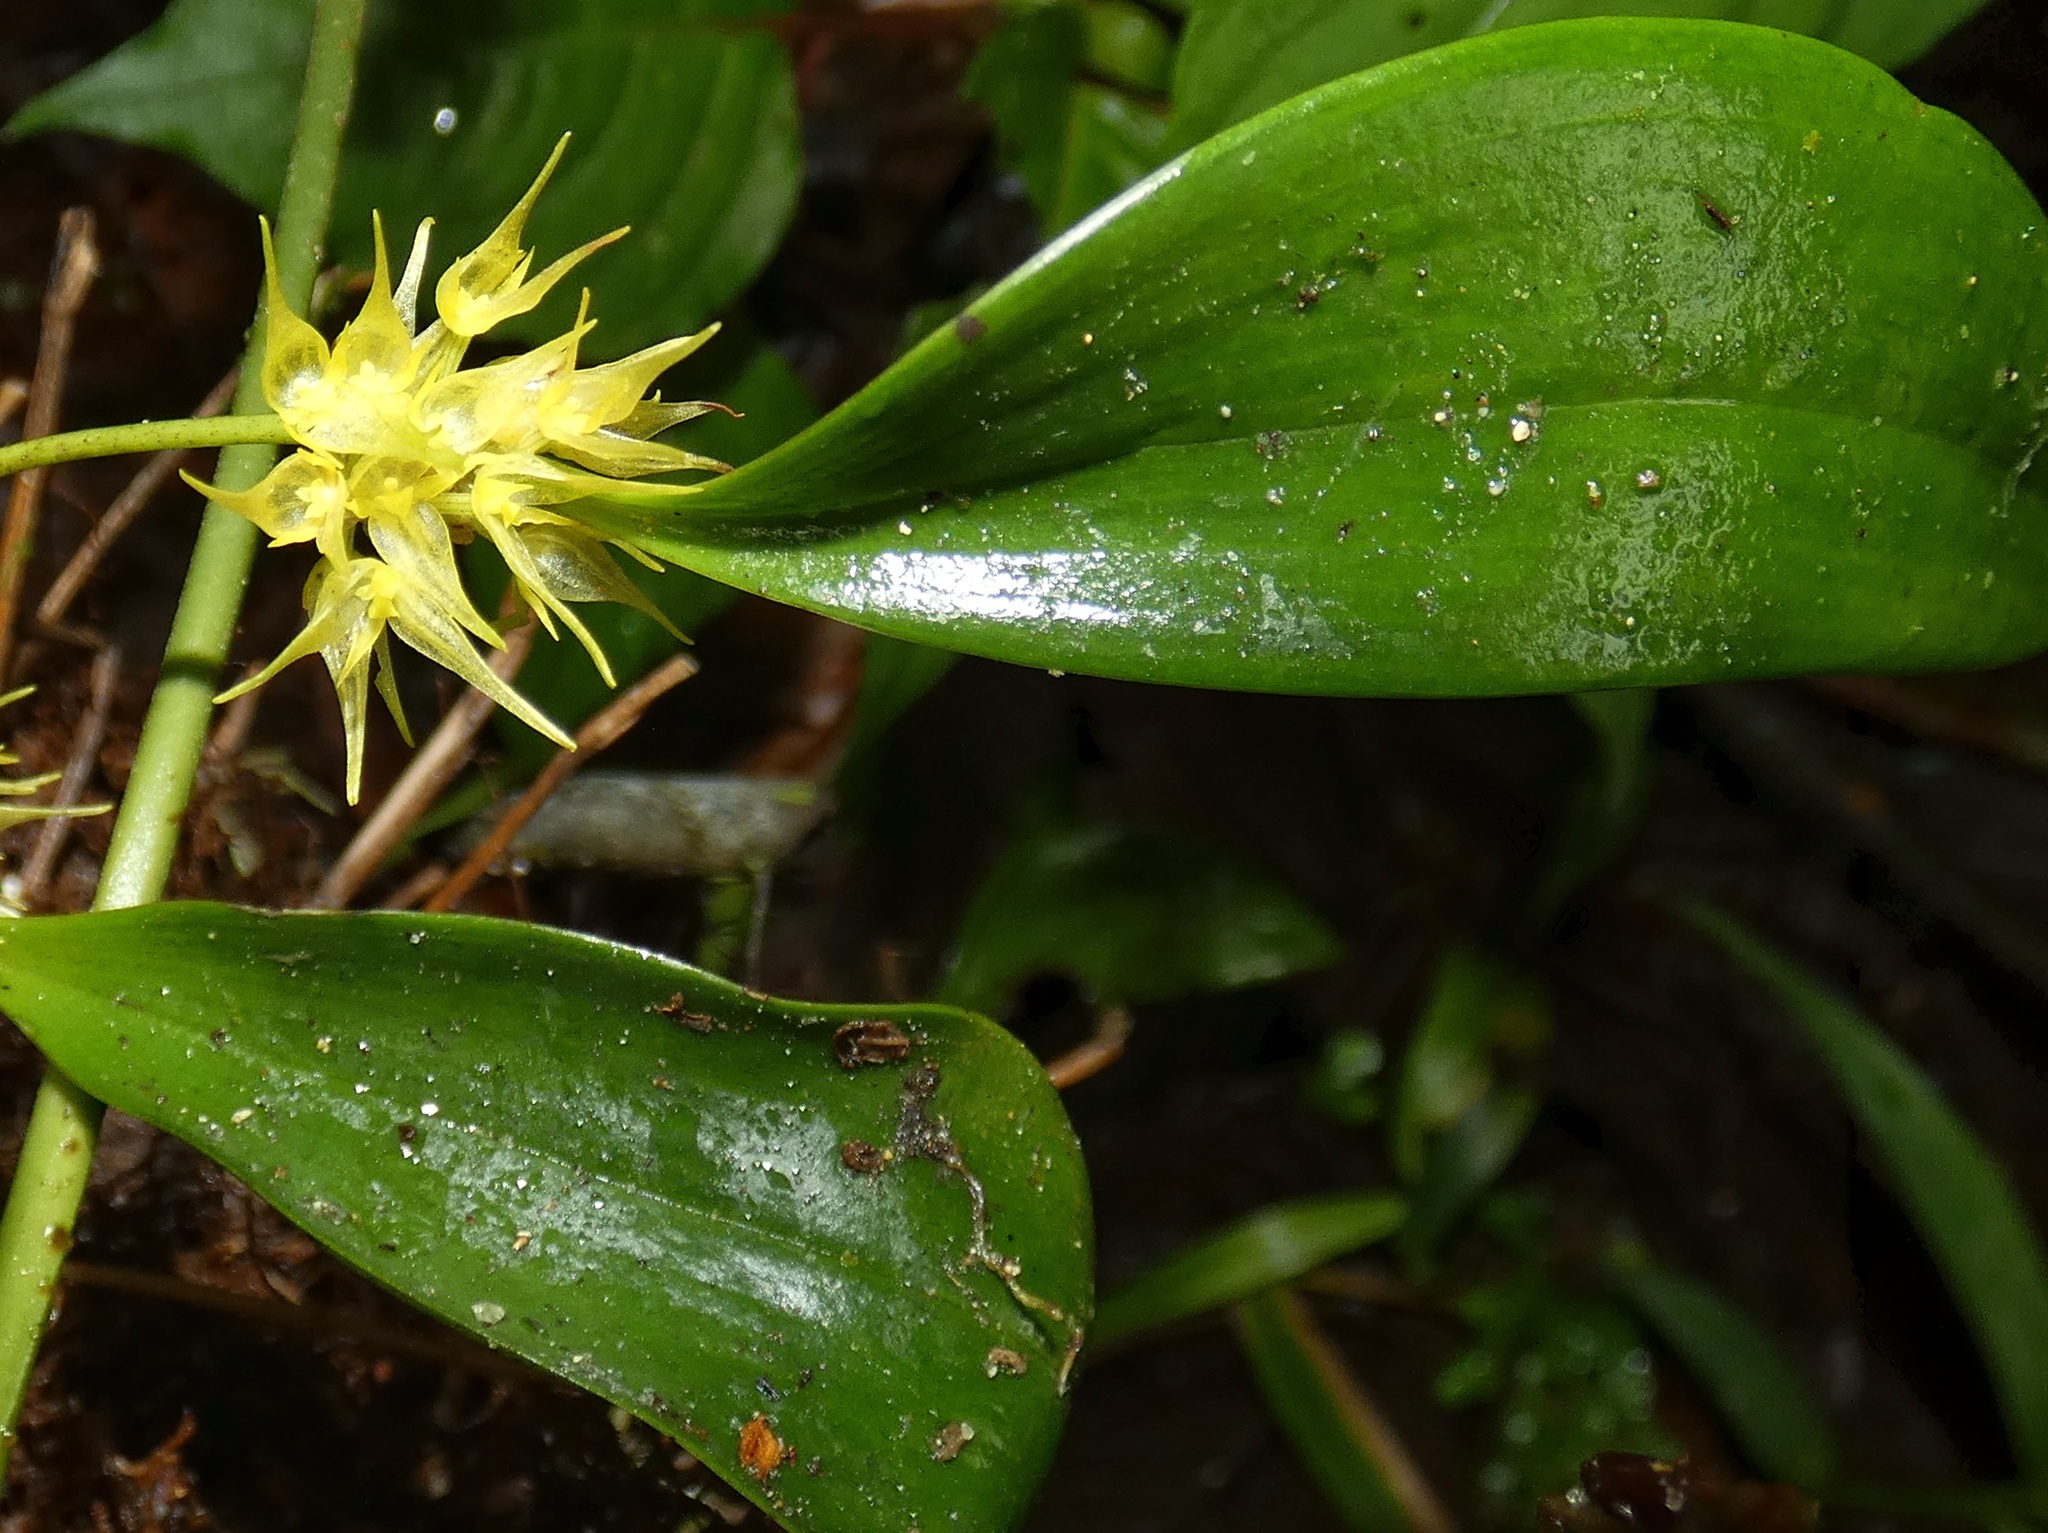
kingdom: Plantae
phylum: Tracheophyta
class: Liliopsida
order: Asparagales
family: Orchidaceae
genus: Pleurothallis
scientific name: Pleurothallis chloroleuca
